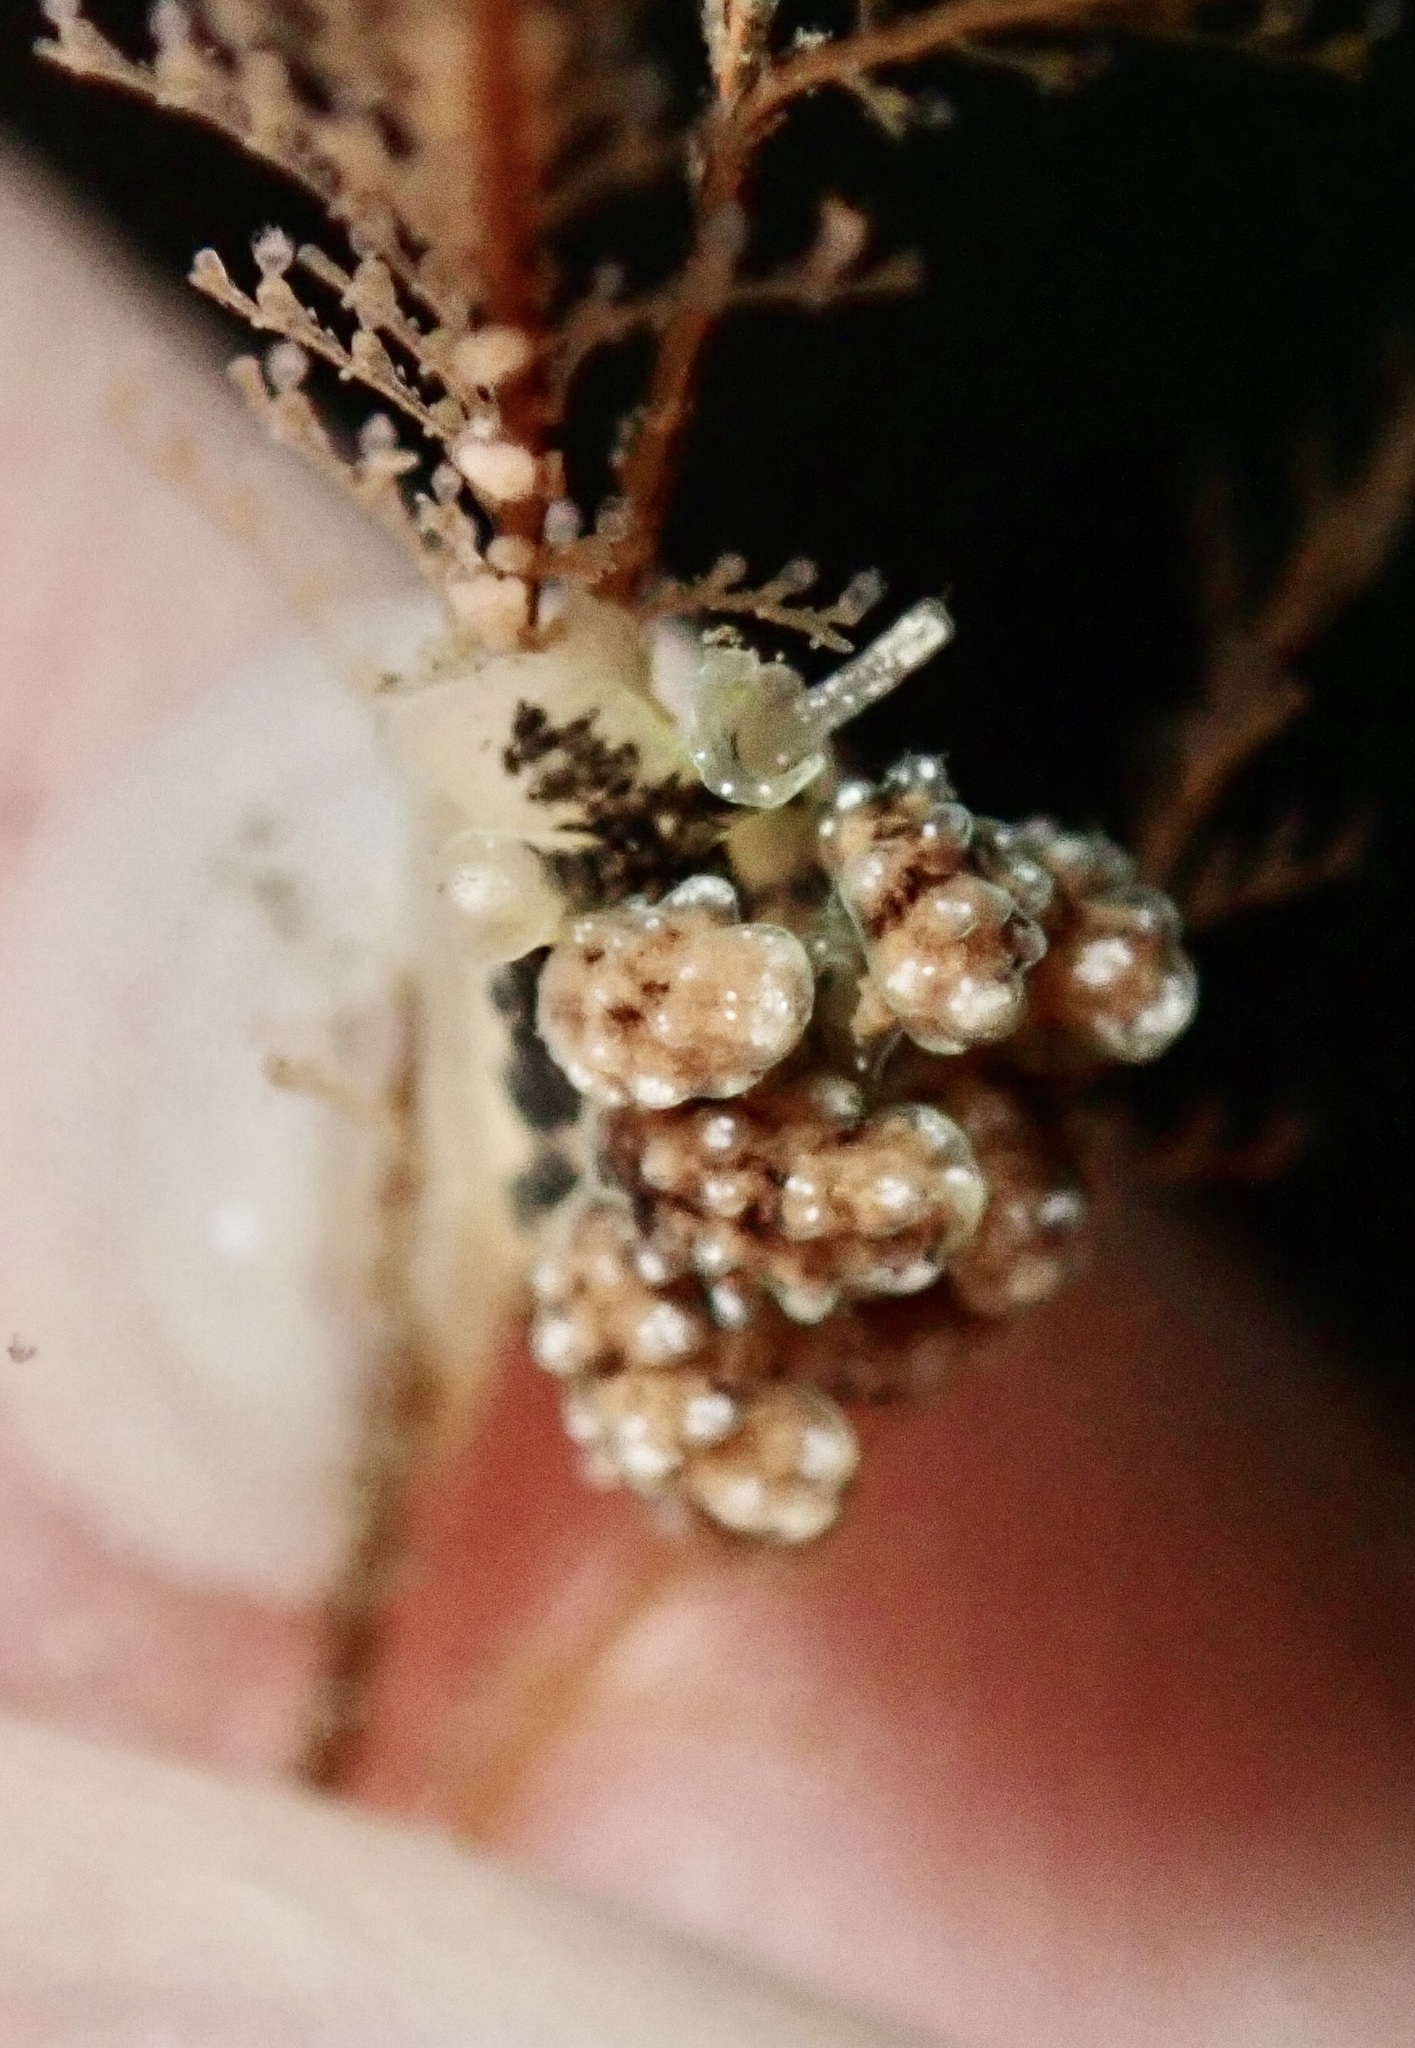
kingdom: Animalia
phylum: Mollusca
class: Gastropoda
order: Nudibranchia
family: Dotidae
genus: Doto
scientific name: Doto kya
